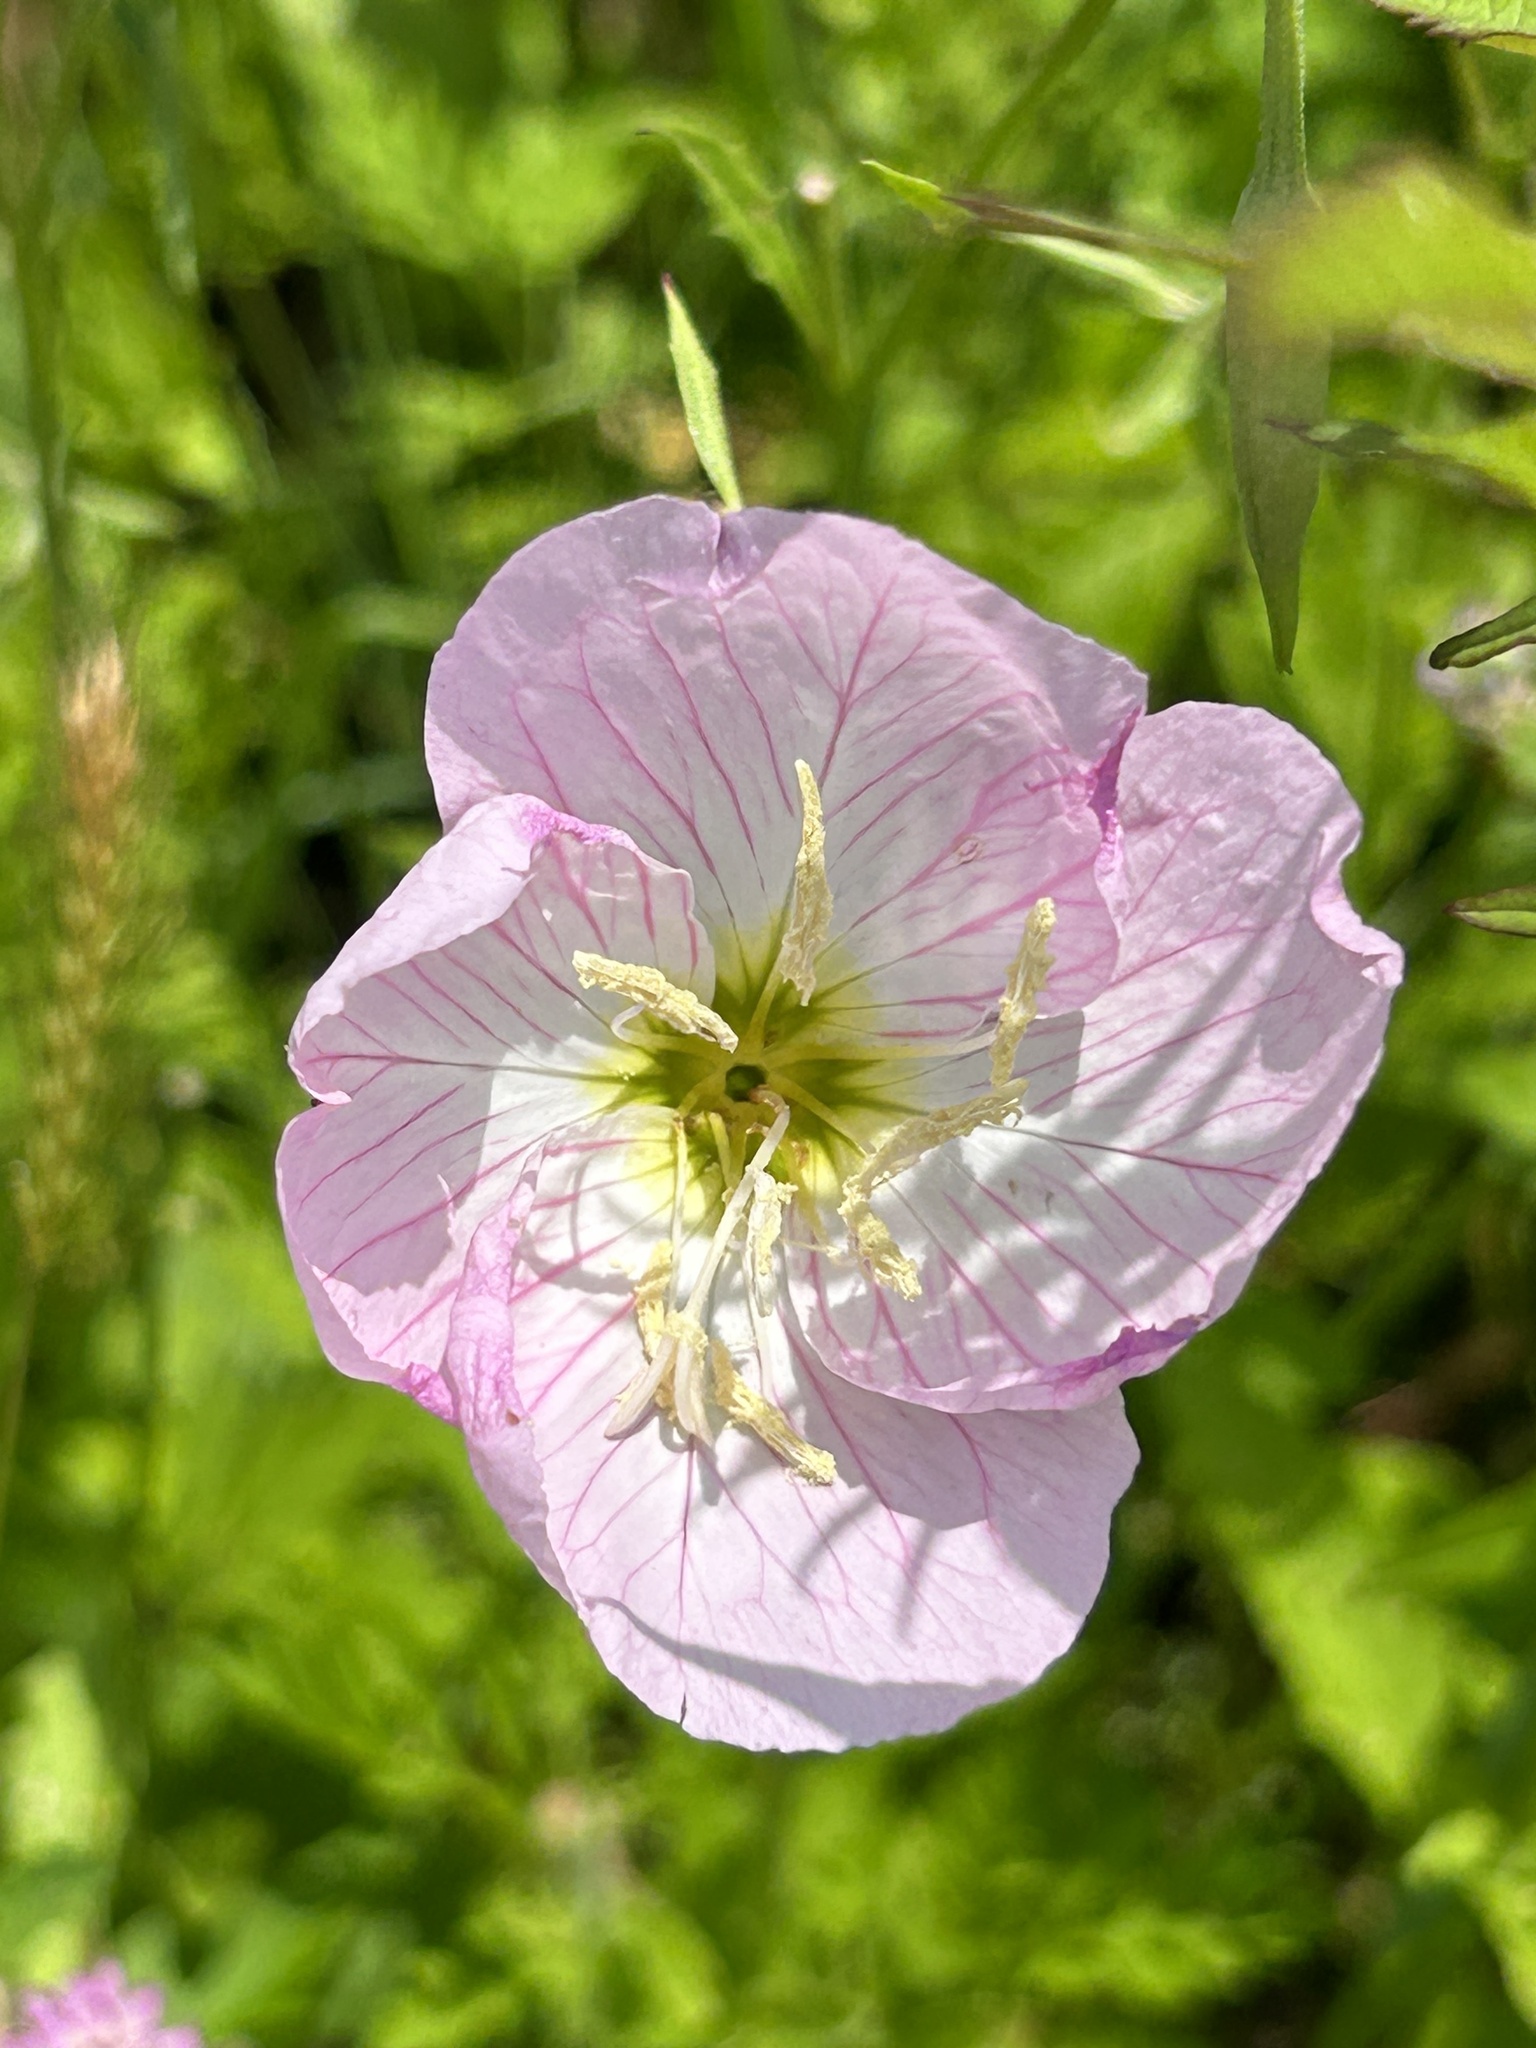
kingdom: Plantae
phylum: Tracheophyta
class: Magnoliopsida
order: Myrtales
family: Onagraceae
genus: Oenothera
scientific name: Oenothera speciosa
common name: White evening-primrose
